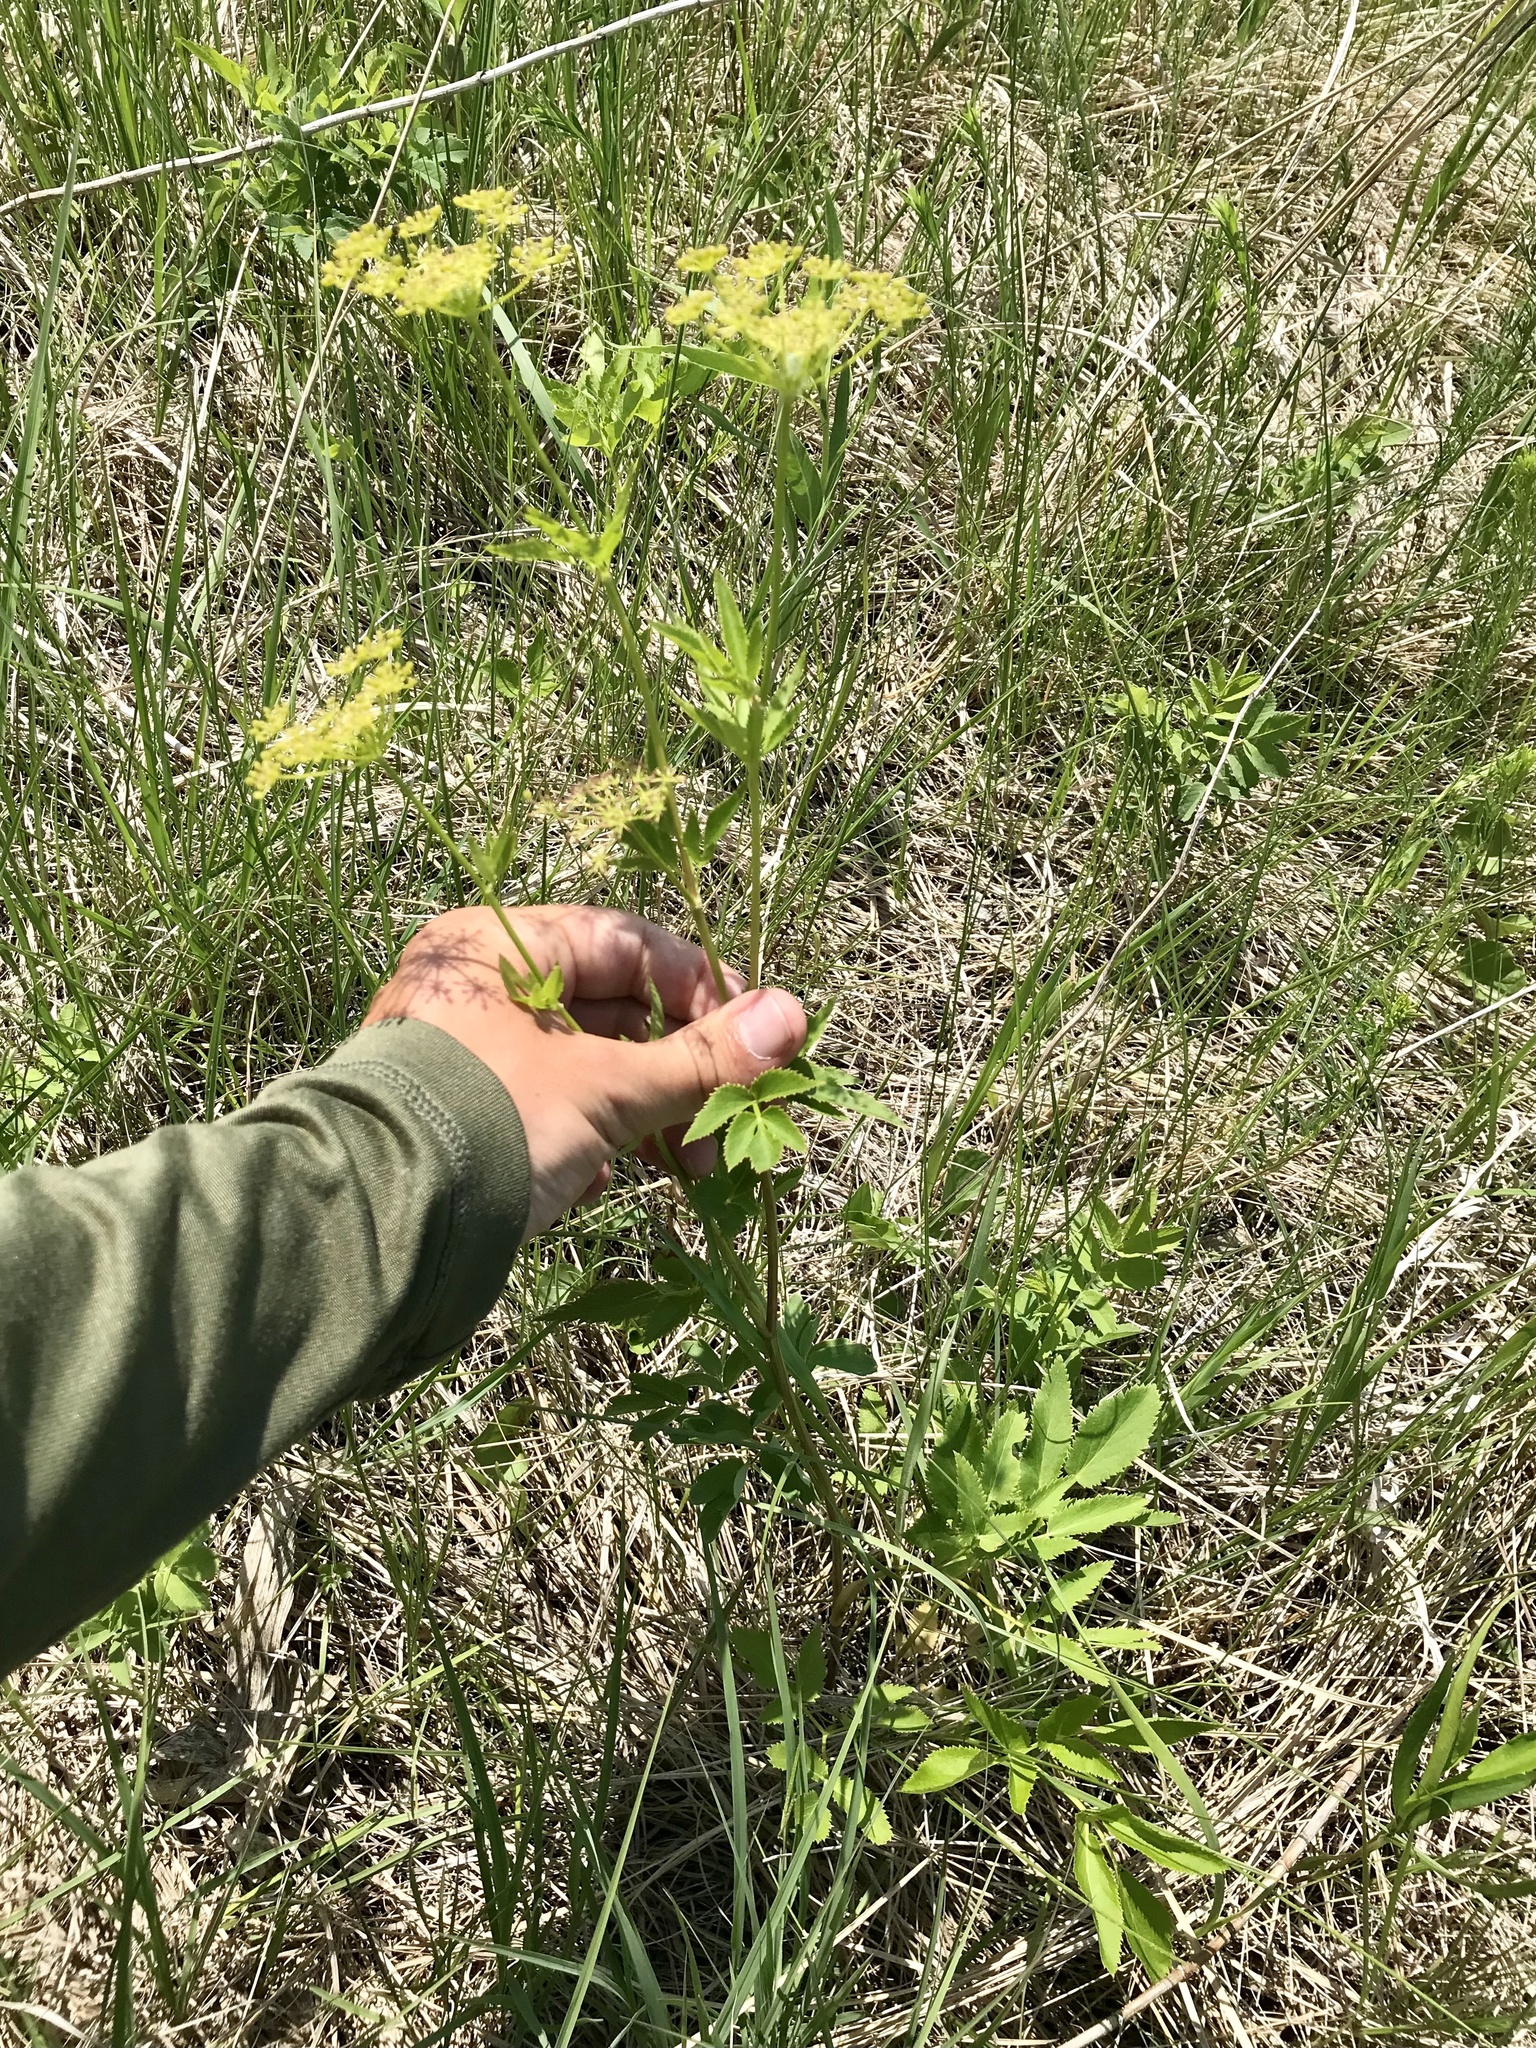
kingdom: Plantae
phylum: Tracheophyta
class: Magnoliopsida
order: Apiales
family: Apiaceae
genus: Zizia
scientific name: Zizia aurea
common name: Golden alexanders
